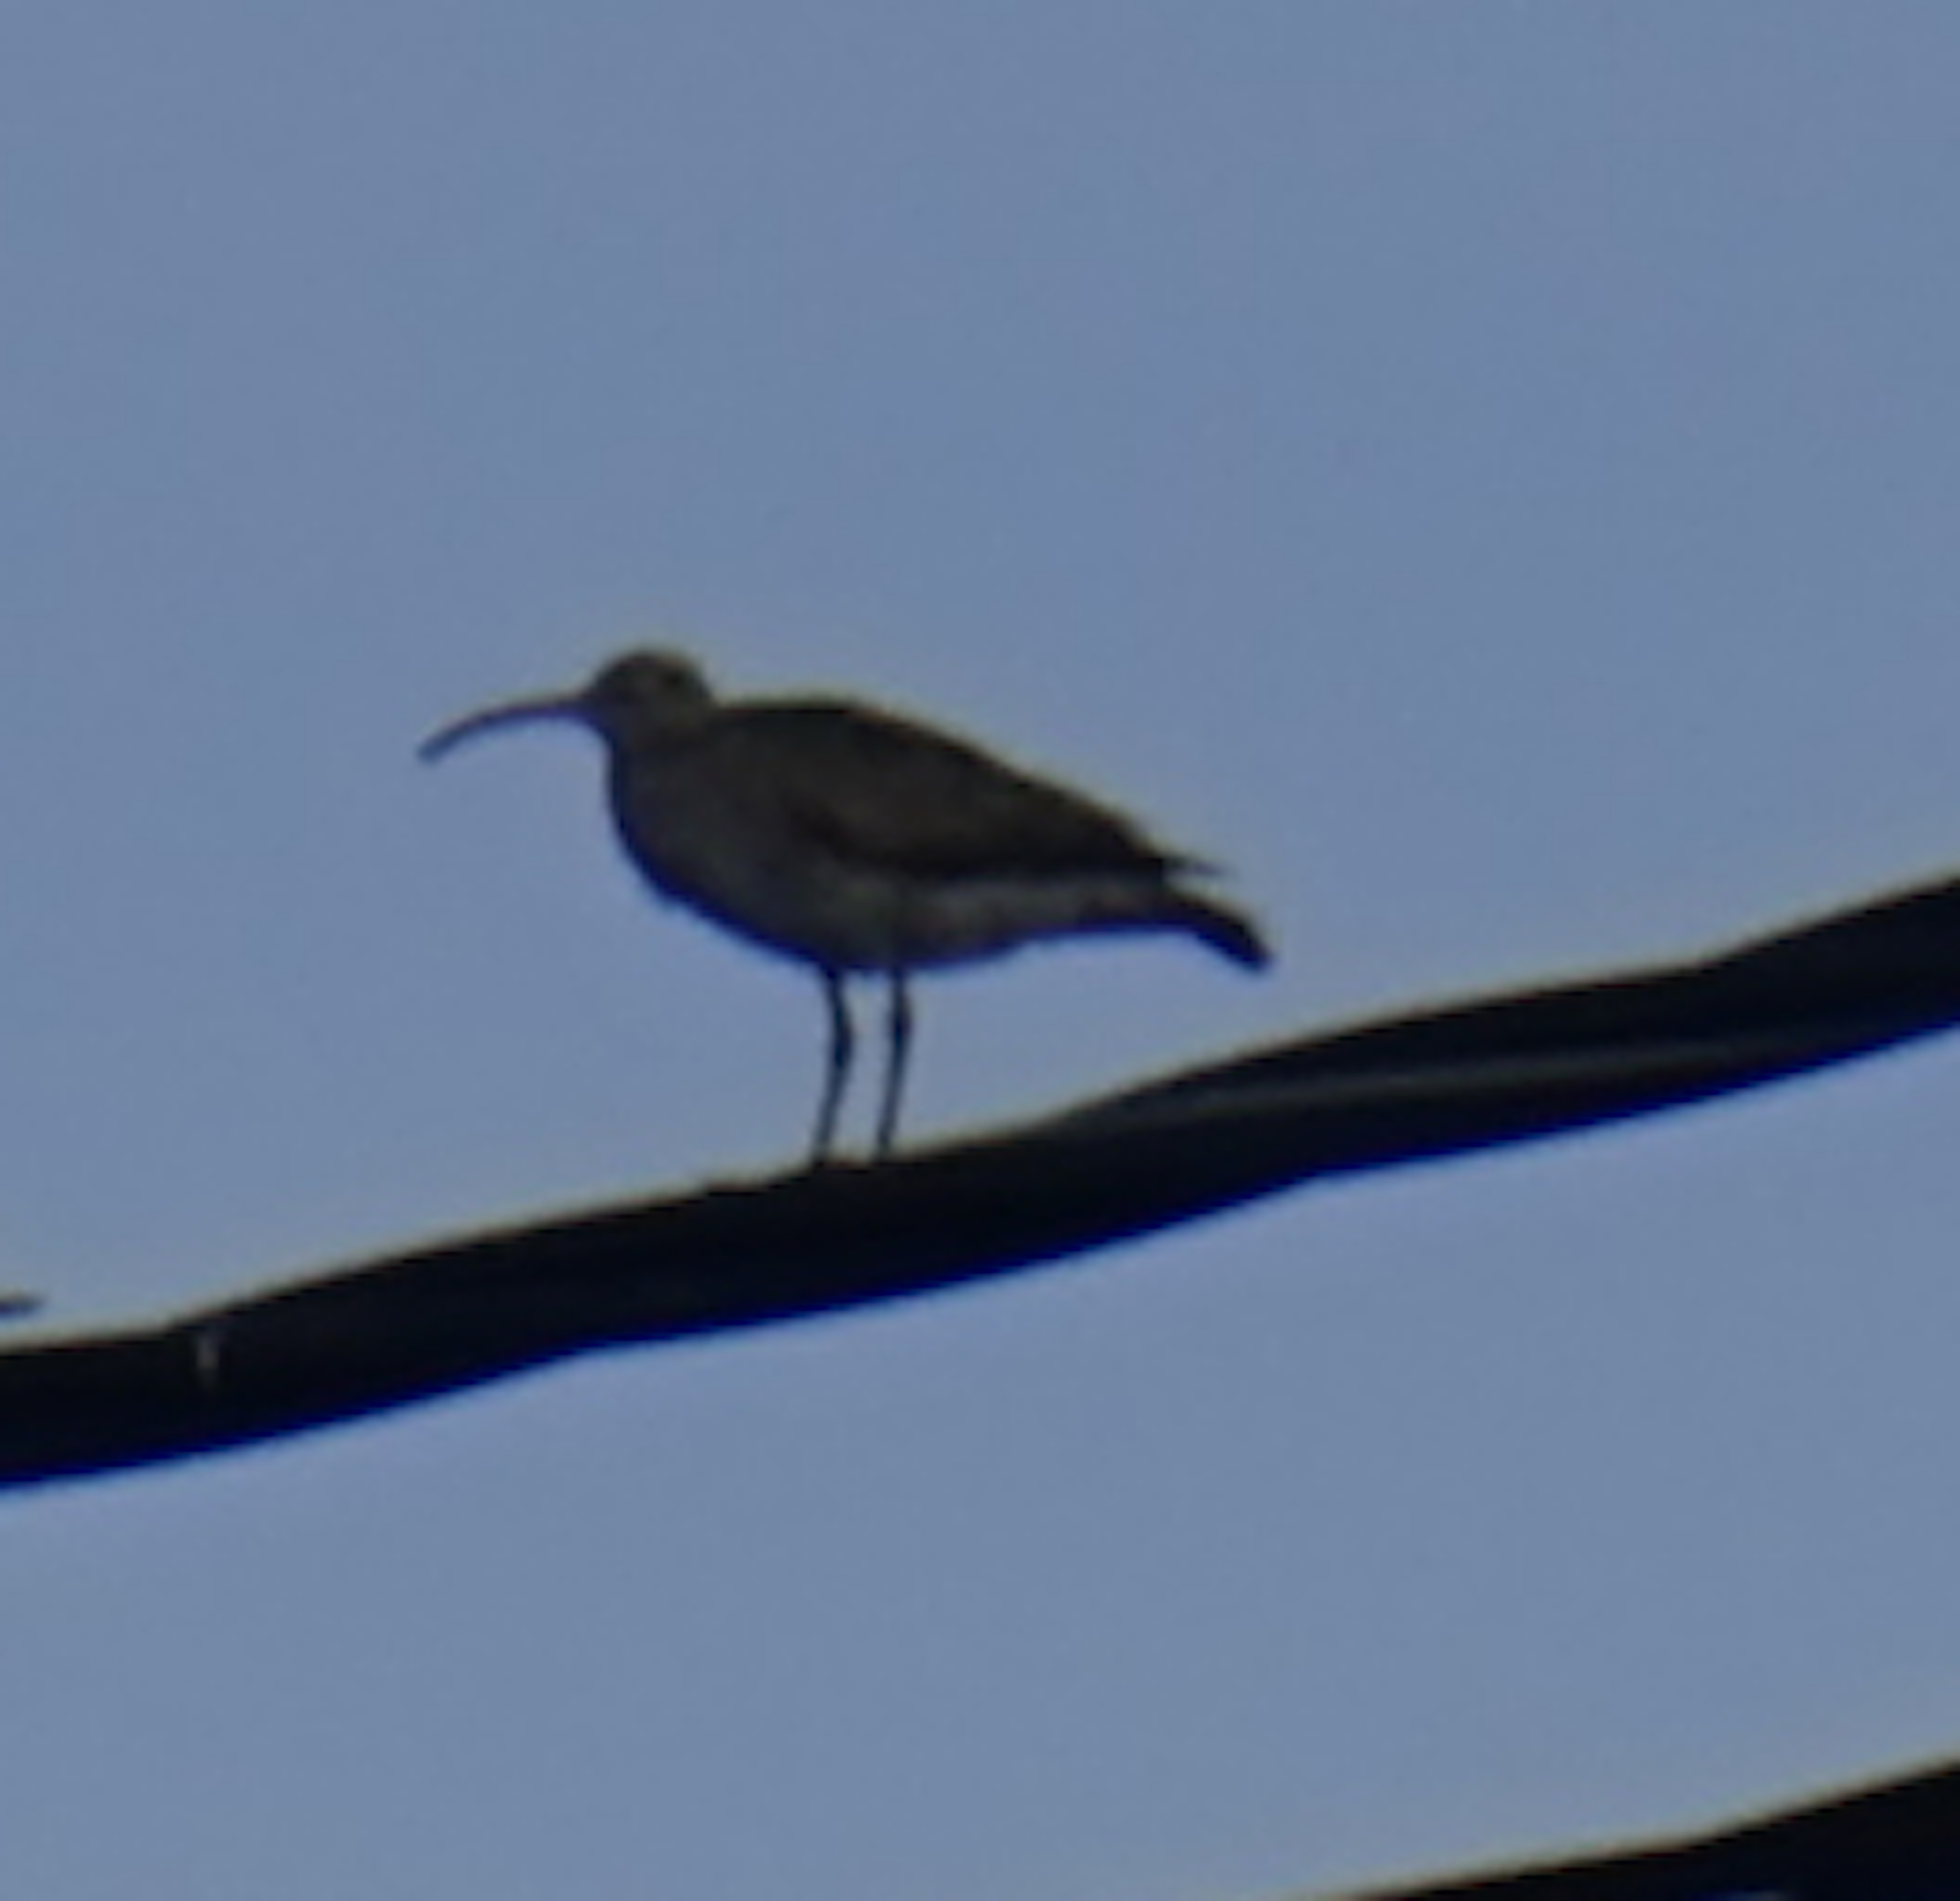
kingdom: Animalia
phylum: Chordata
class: Aves
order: Charadriiformes
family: Scolopacidae
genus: Numenius
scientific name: Numenius phaeopus
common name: Whimbrel
